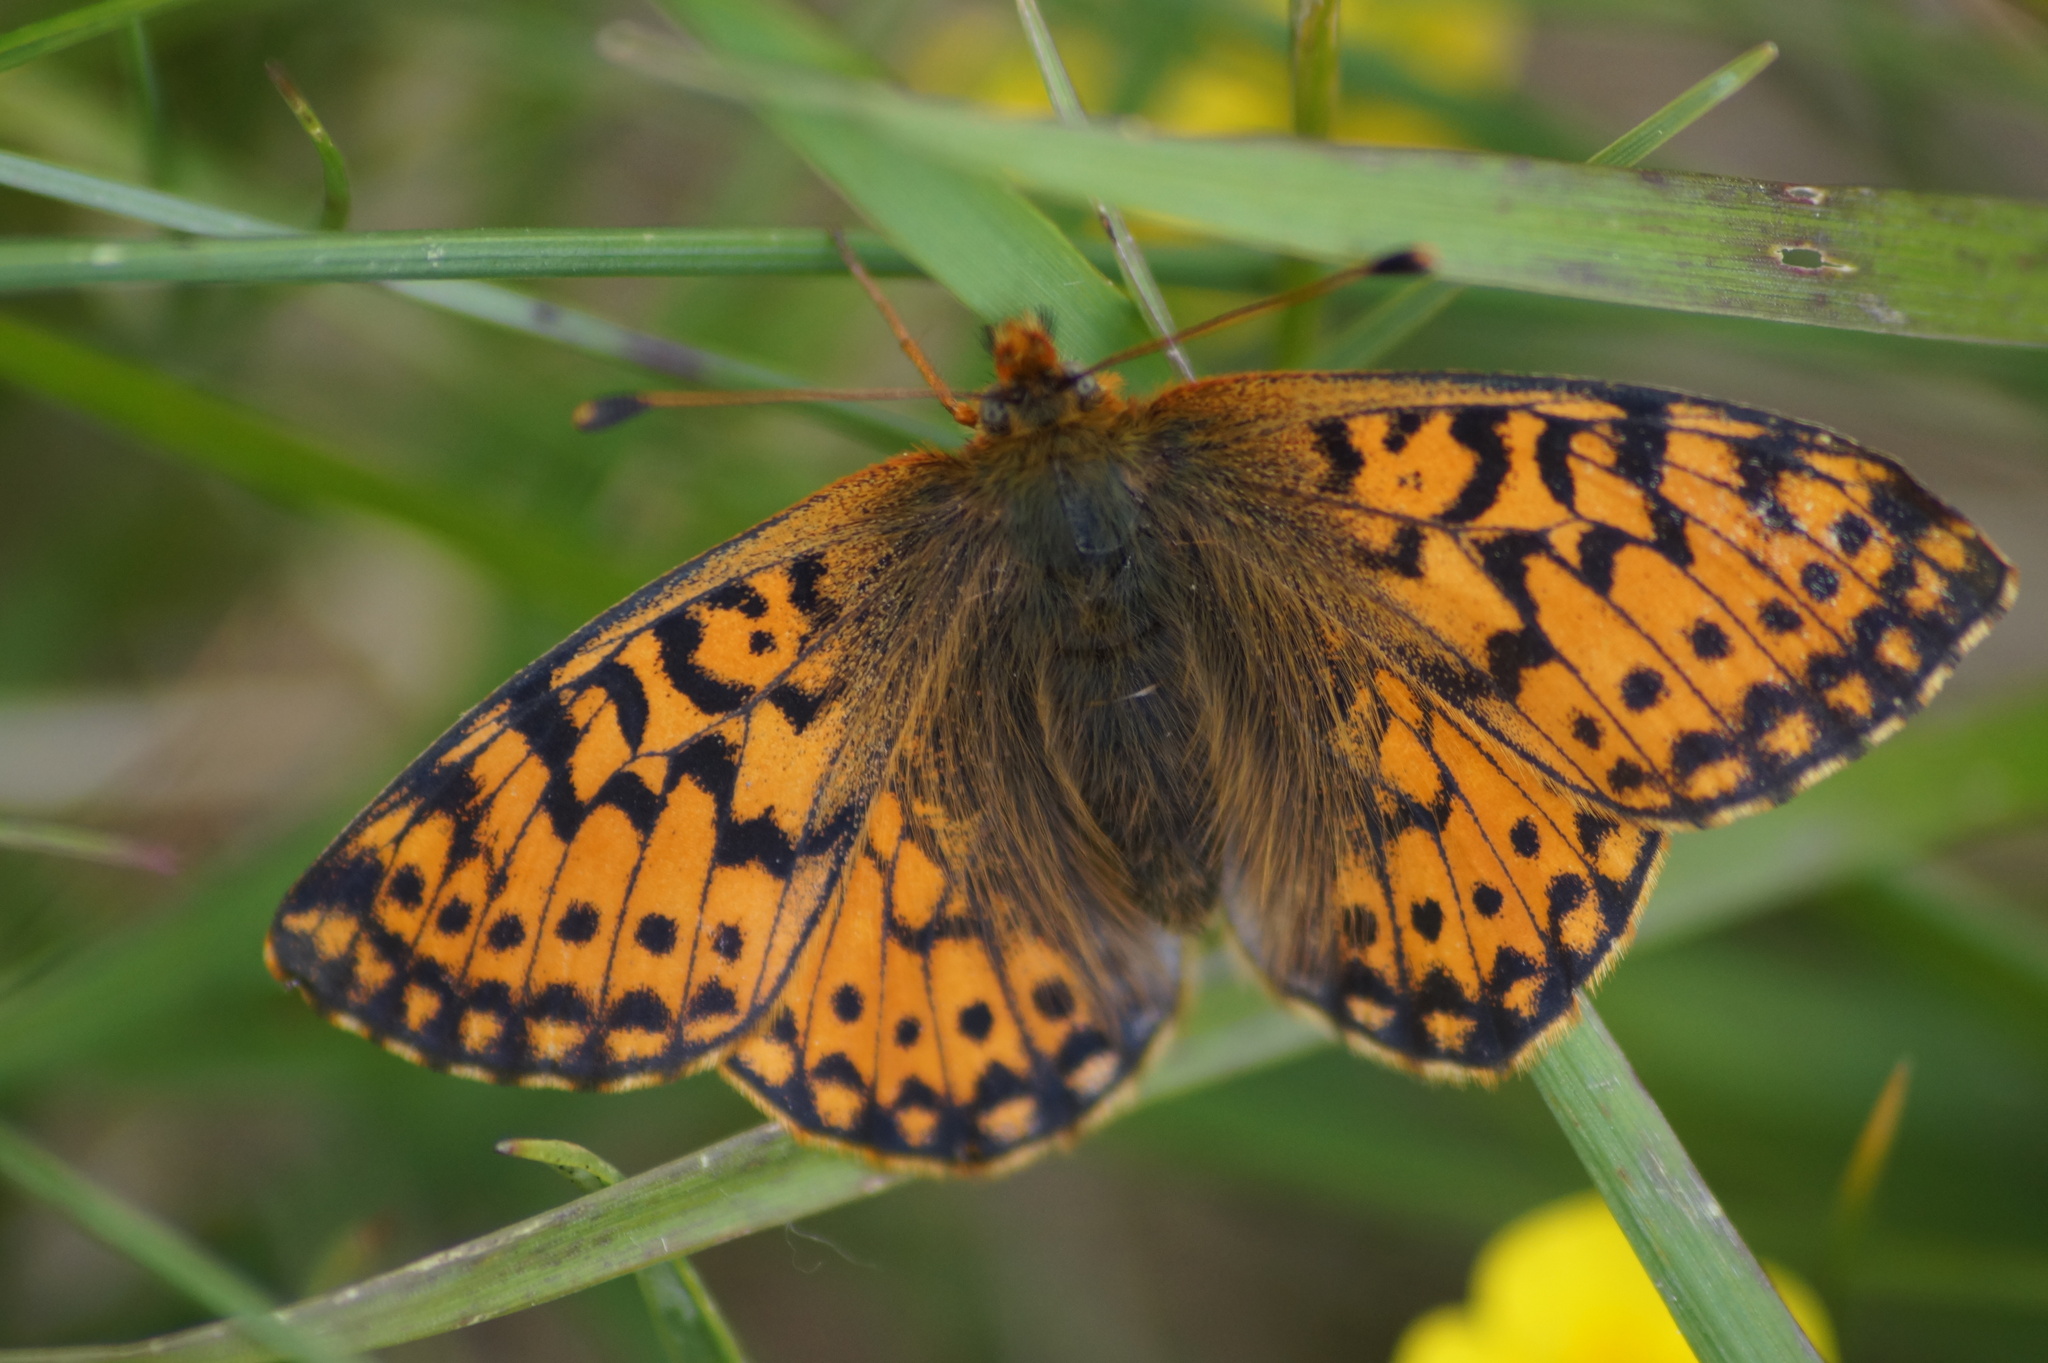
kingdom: Animalia
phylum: Arthropoda
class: Insecta
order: Lepidoptera
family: Nymphalidae
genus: Boloria
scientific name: Boloria pales
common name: Shepherd's fritillary
